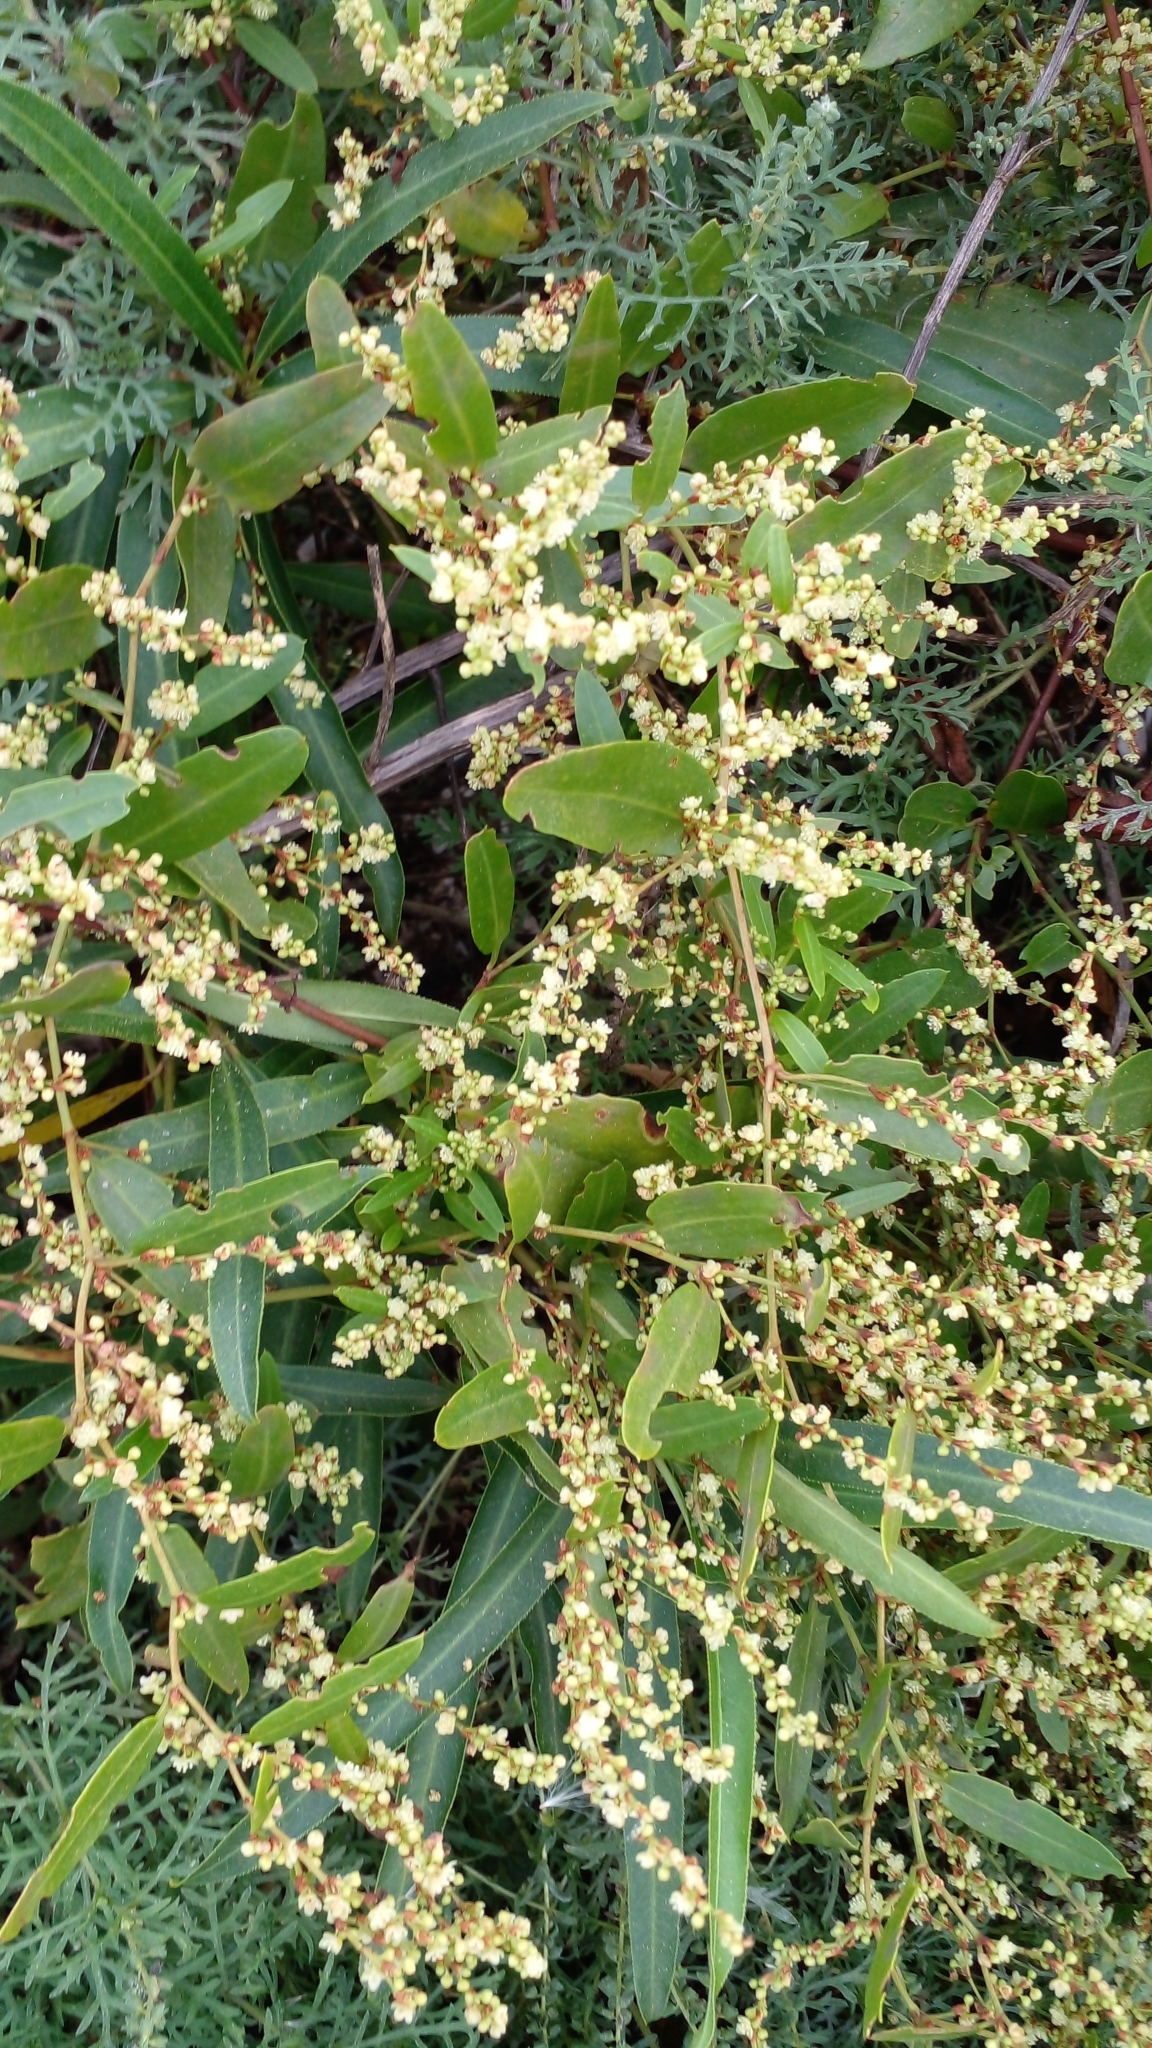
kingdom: Plantae
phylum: Tracheophyta
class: Magnoliopsida
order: Caryophyllales
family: Polygonaceae
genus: Muehlenbeckia
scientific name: Muehlenbeckia sagittifolia
